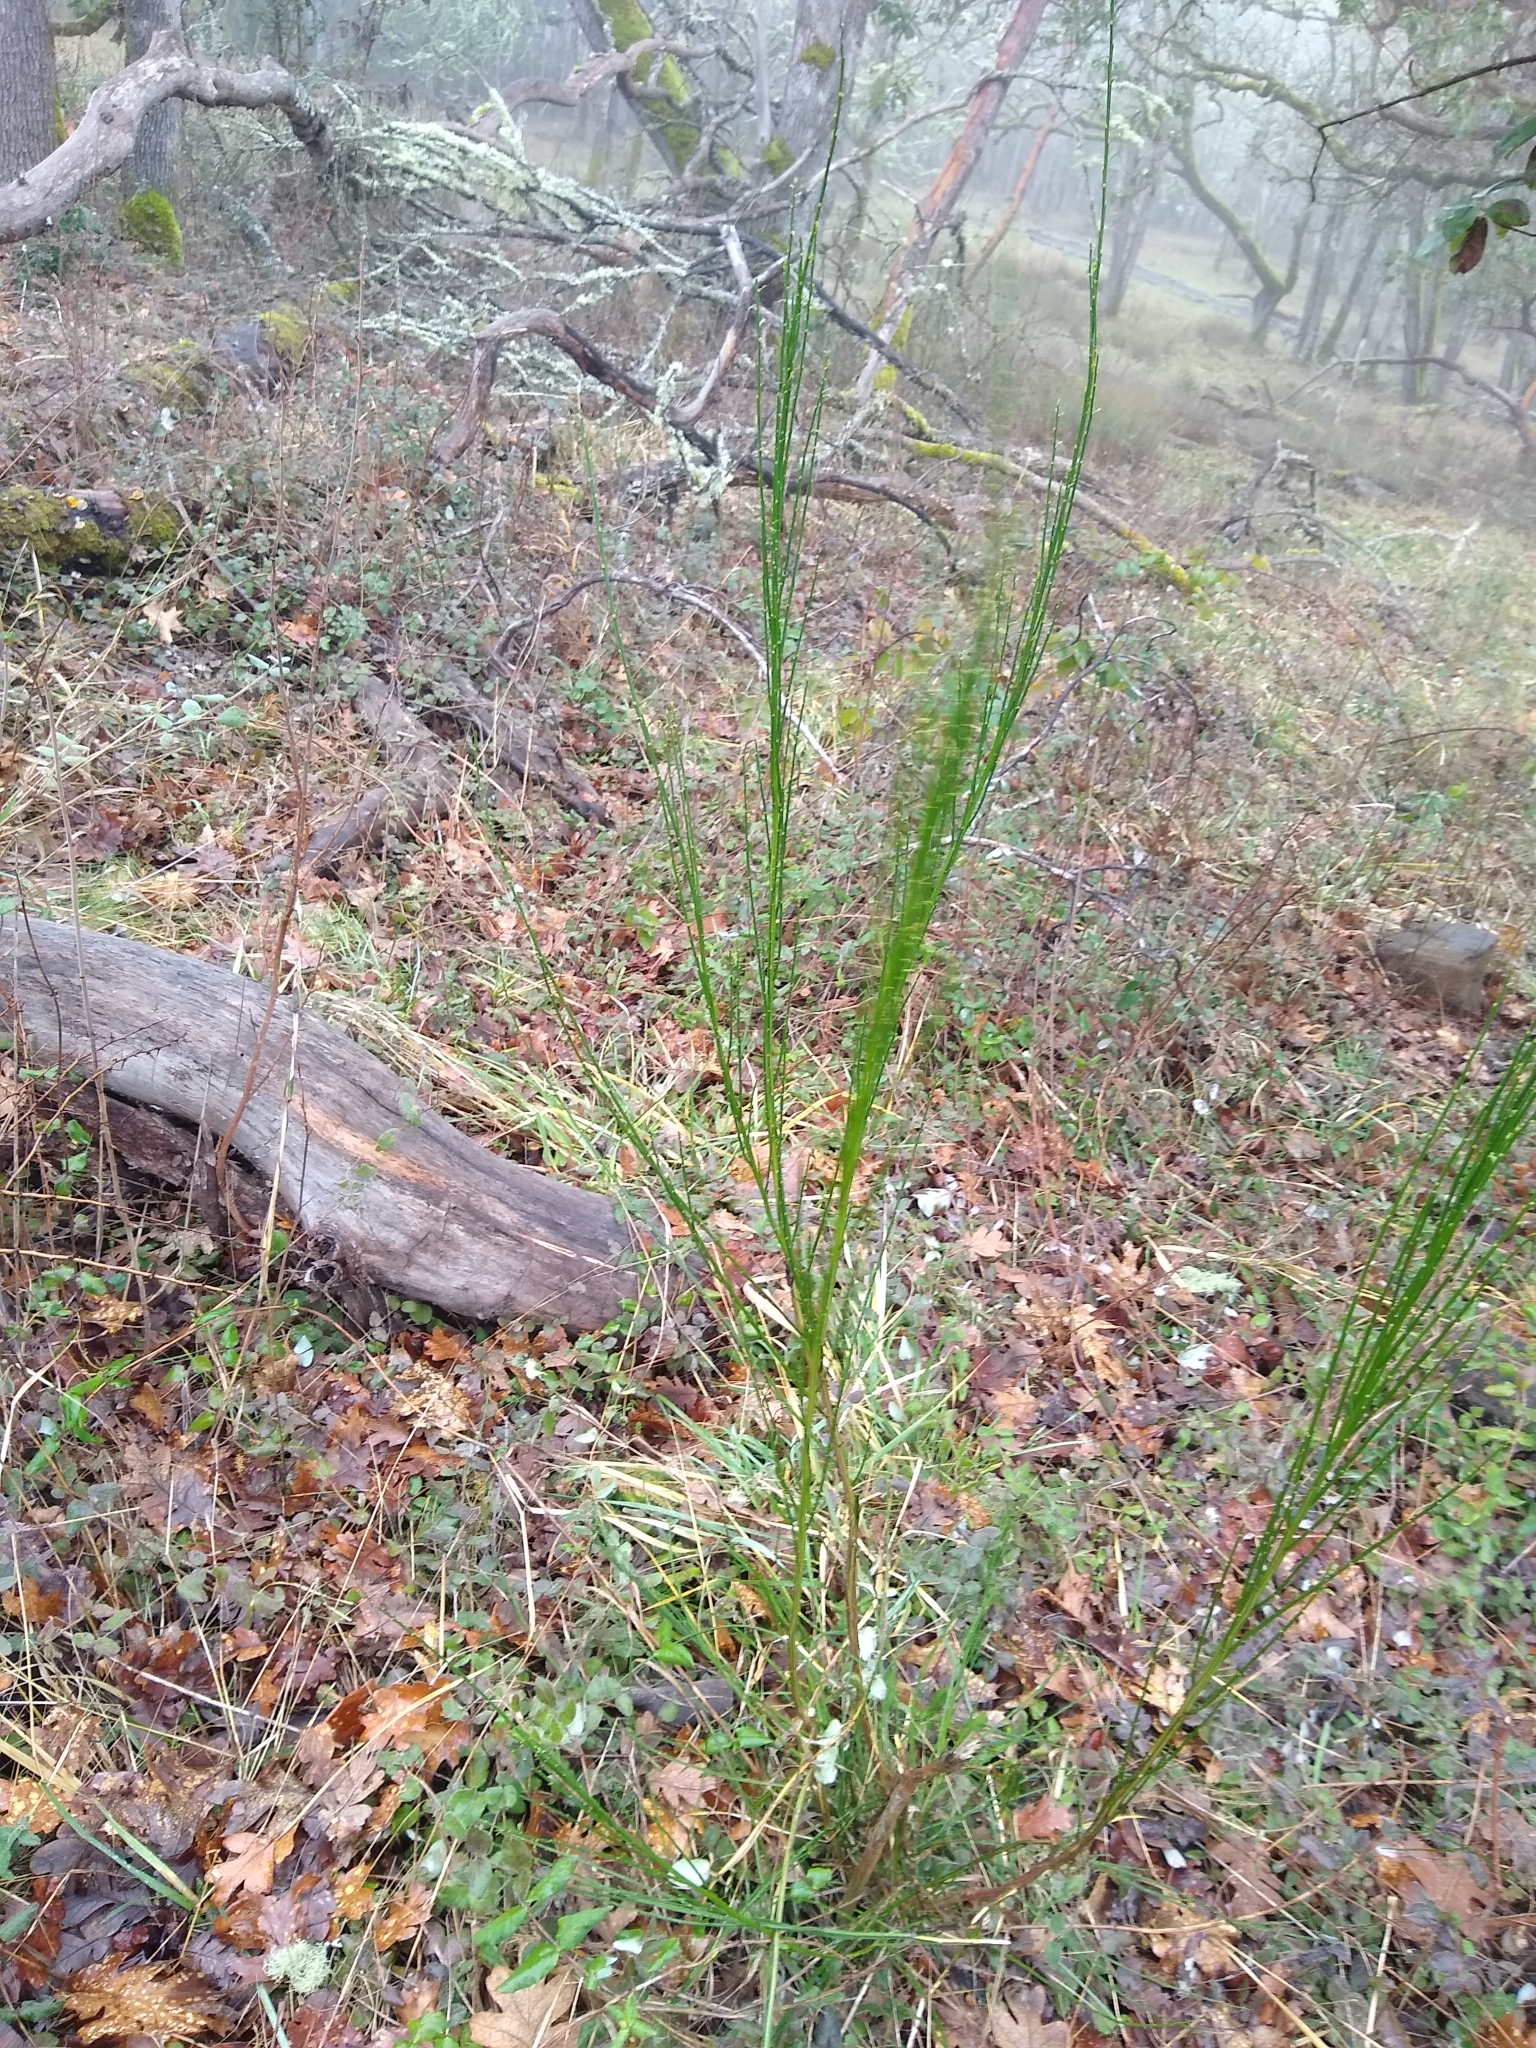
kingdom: Plantae
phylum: Tracheophyta
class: Magnoliopsida
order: Fabales
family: Fabaceae
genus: Cytisus
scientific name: Cytisus scoparius
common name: Scotch broom
